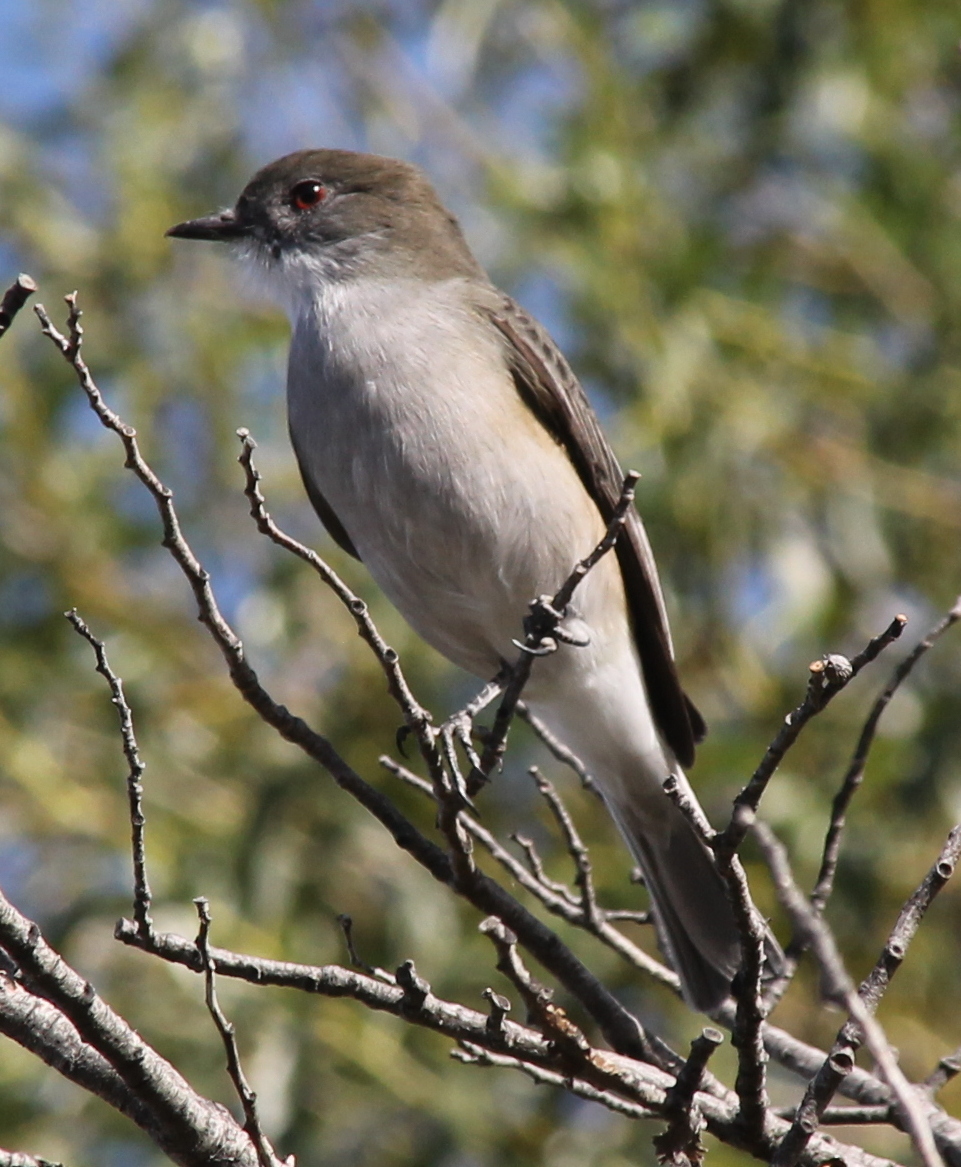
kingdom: Animalia
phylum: Chordata
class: Aves
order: Passeriformes
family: Tyrannidae
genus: Xolmis
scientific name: Xolmis pyrope
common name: Fire-eyed diucon
